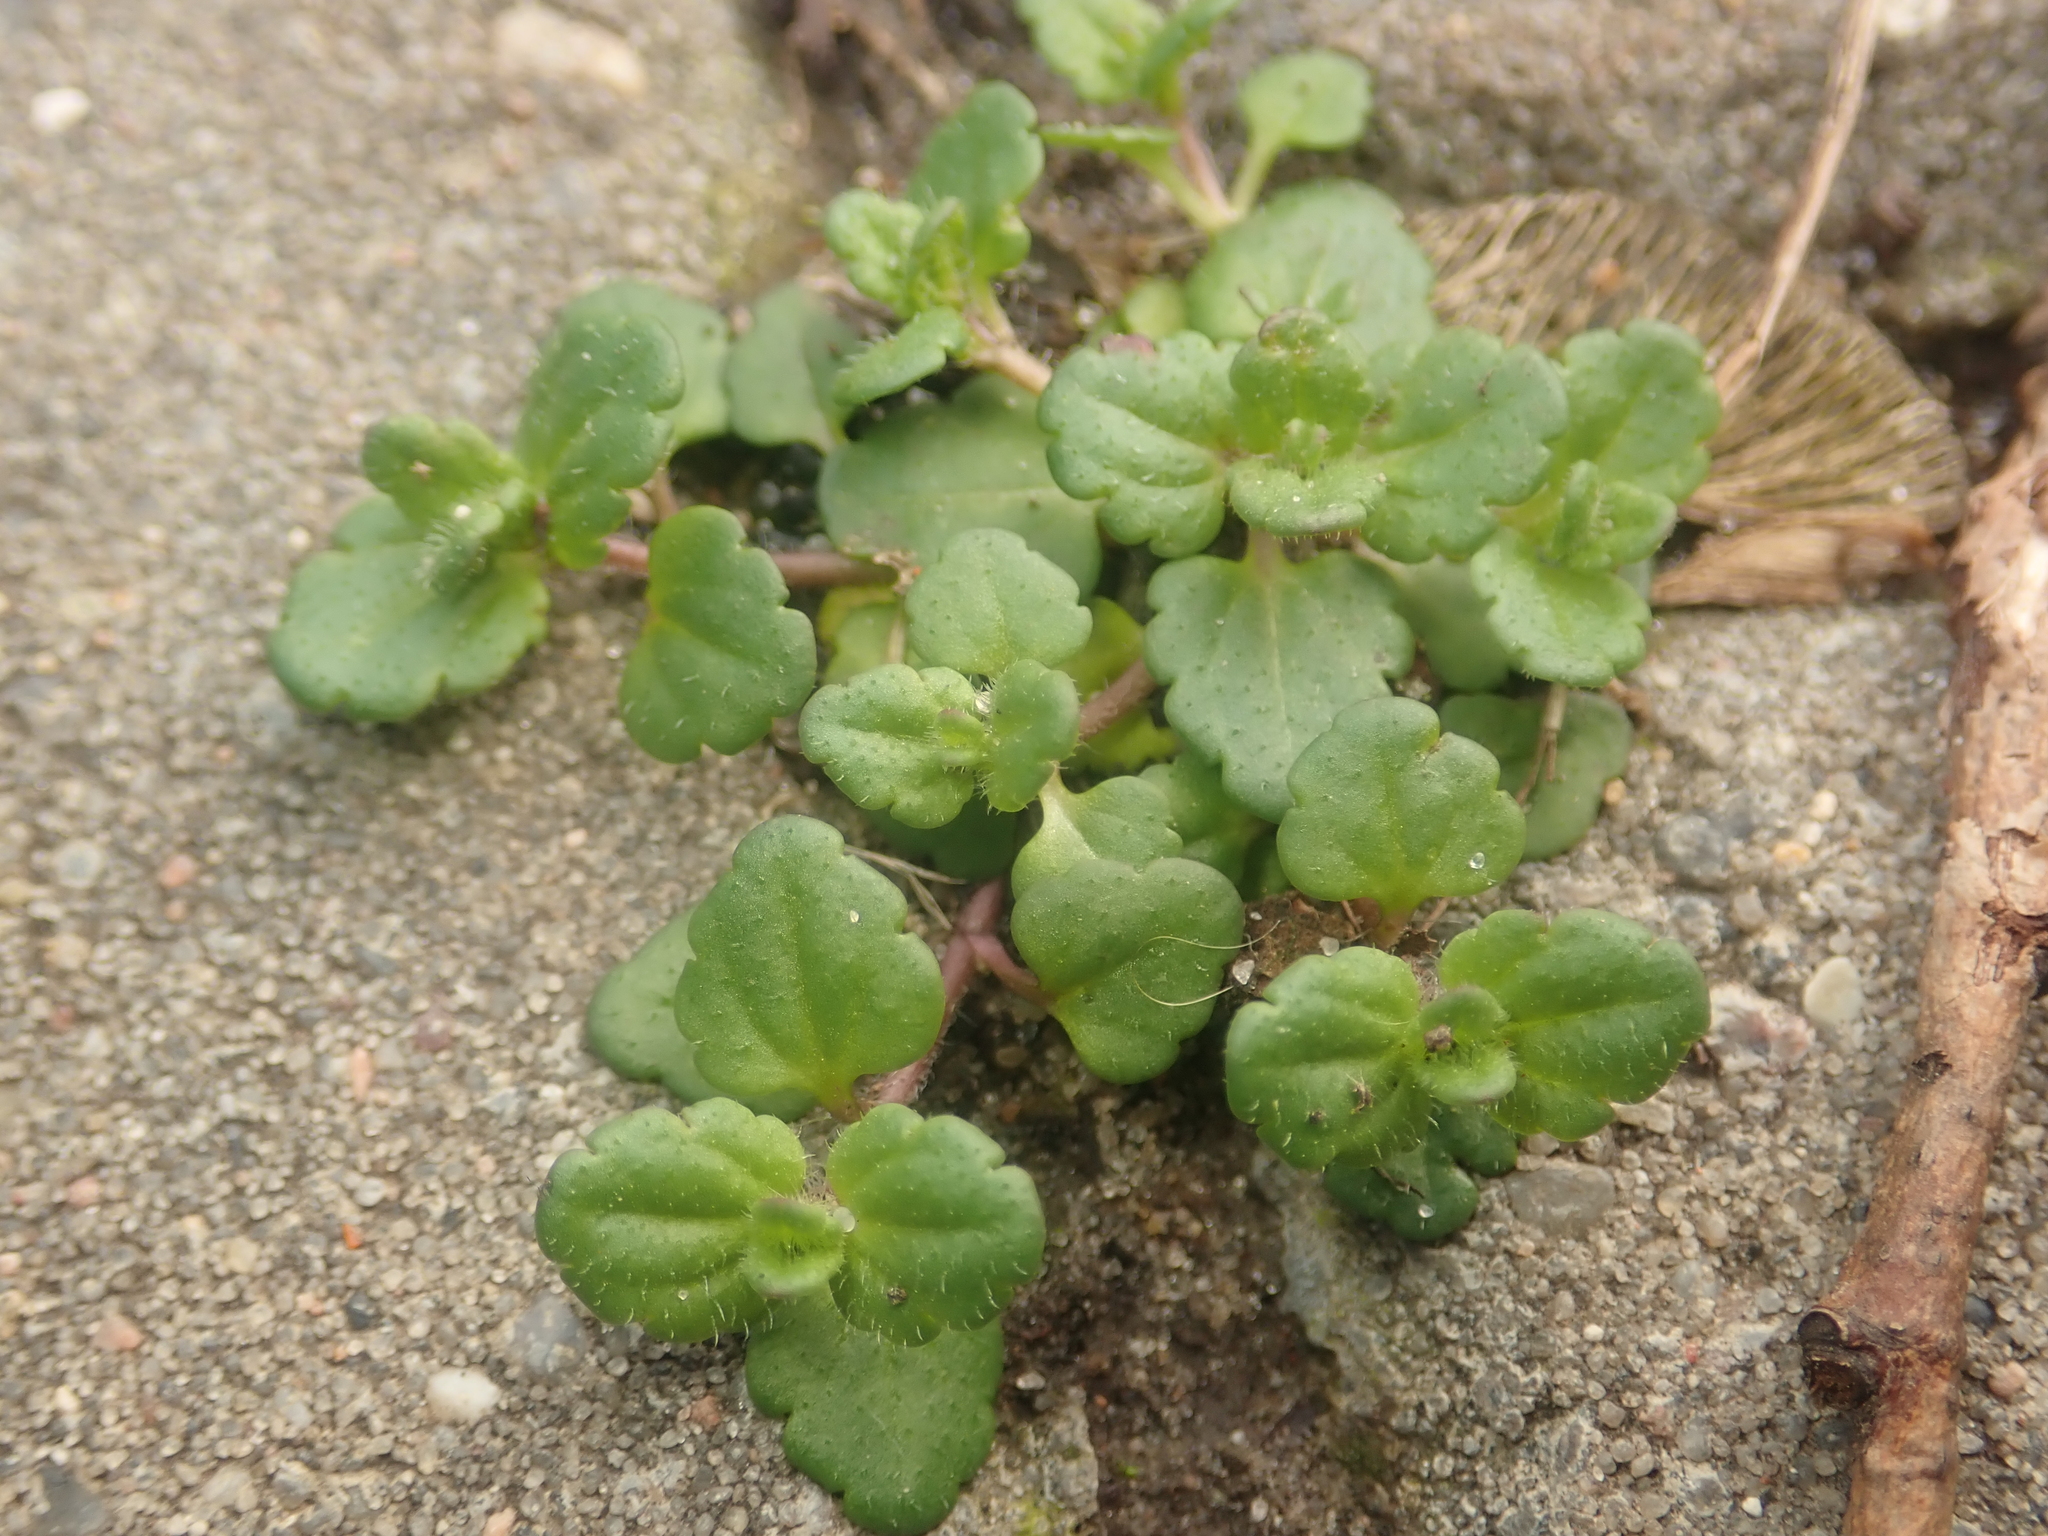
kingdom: Plantae
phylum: Tracheophyta
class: Magnoliopsida
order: Lamiales
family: Plantaginaceae
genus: Veronica
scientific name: Veronica arvensis
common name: Corn speedwell
